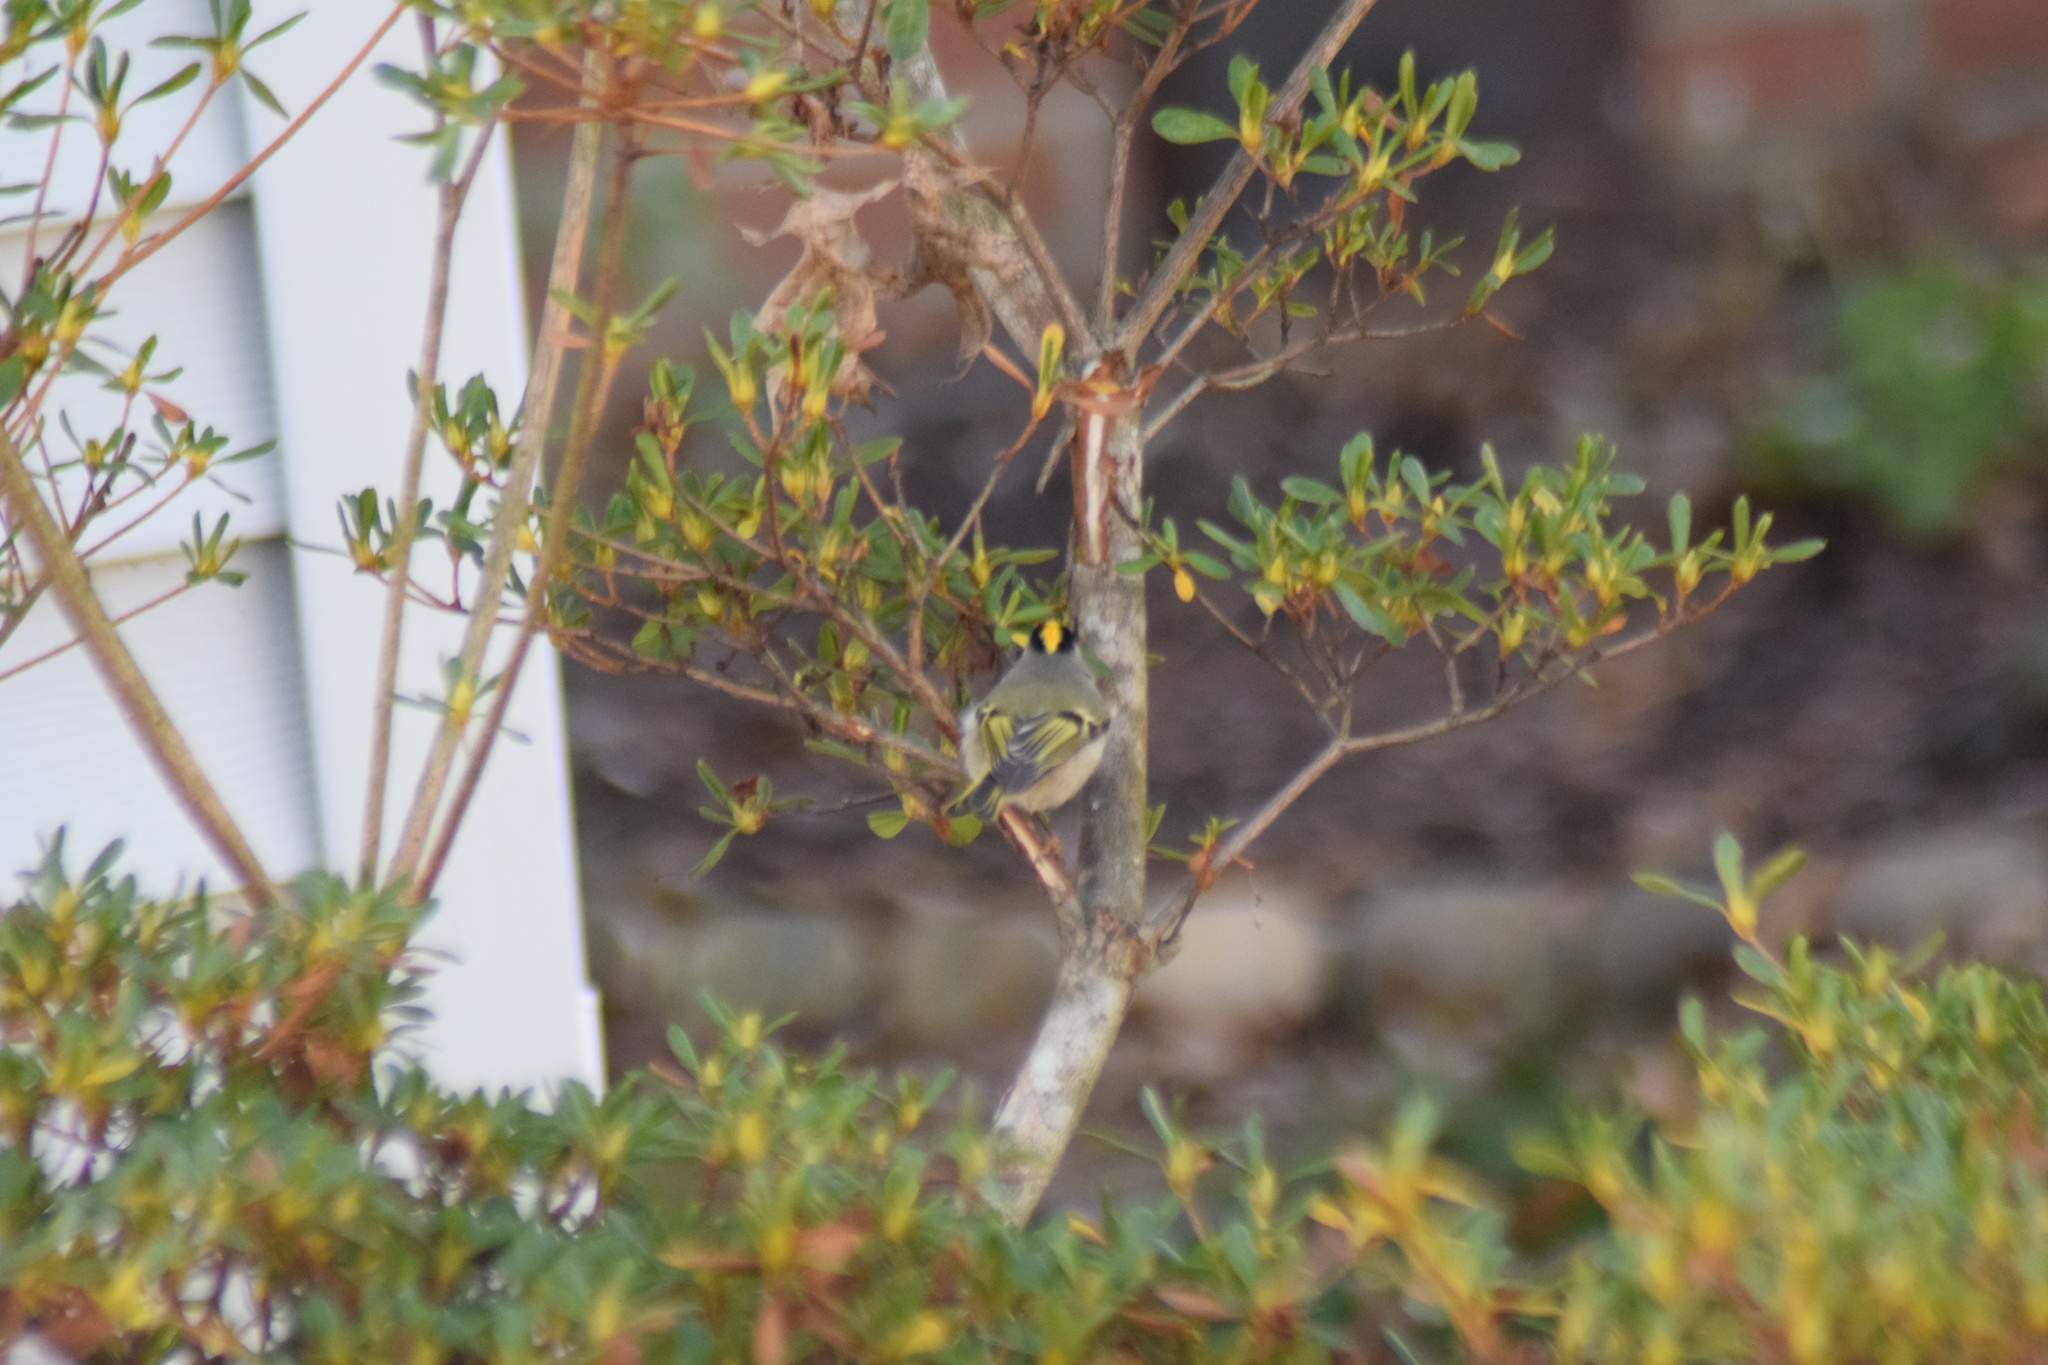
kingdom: Animalia
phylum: Chordata
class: Aves
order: Passeriformes
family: Regulidae
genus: Regulus
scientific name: Regulus satrapa
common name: Golden-crowned kinglet
